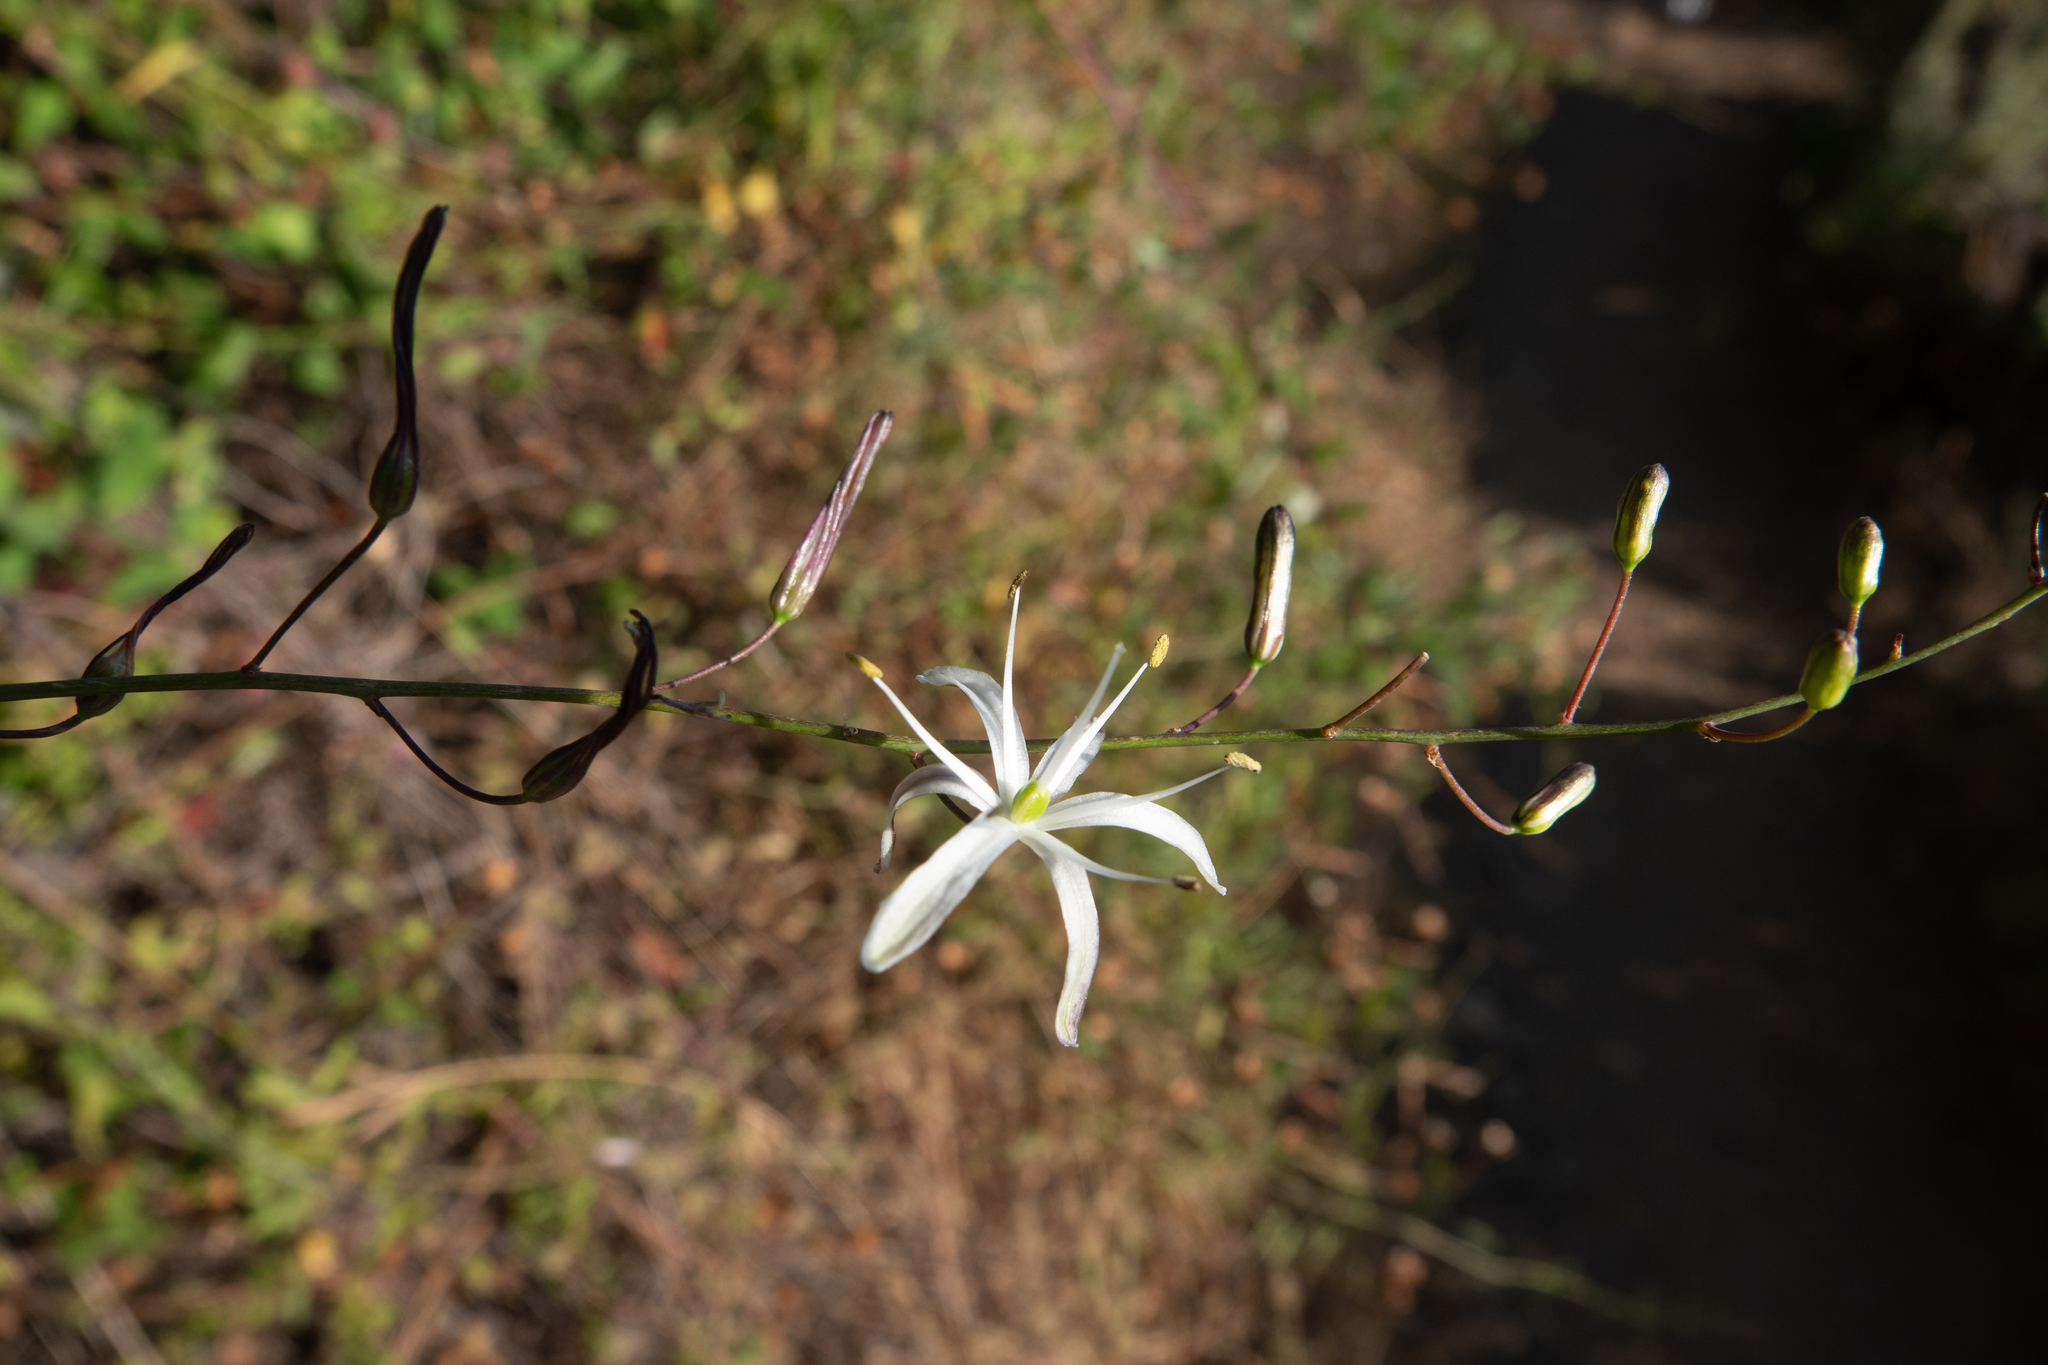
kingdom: Plantae
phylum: Tracheophyta
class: Liliopsida
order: Asparagales
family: Asparagaceae
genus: Chlorogalum
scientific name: Chlorogalum pomeridianum
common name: Amole
